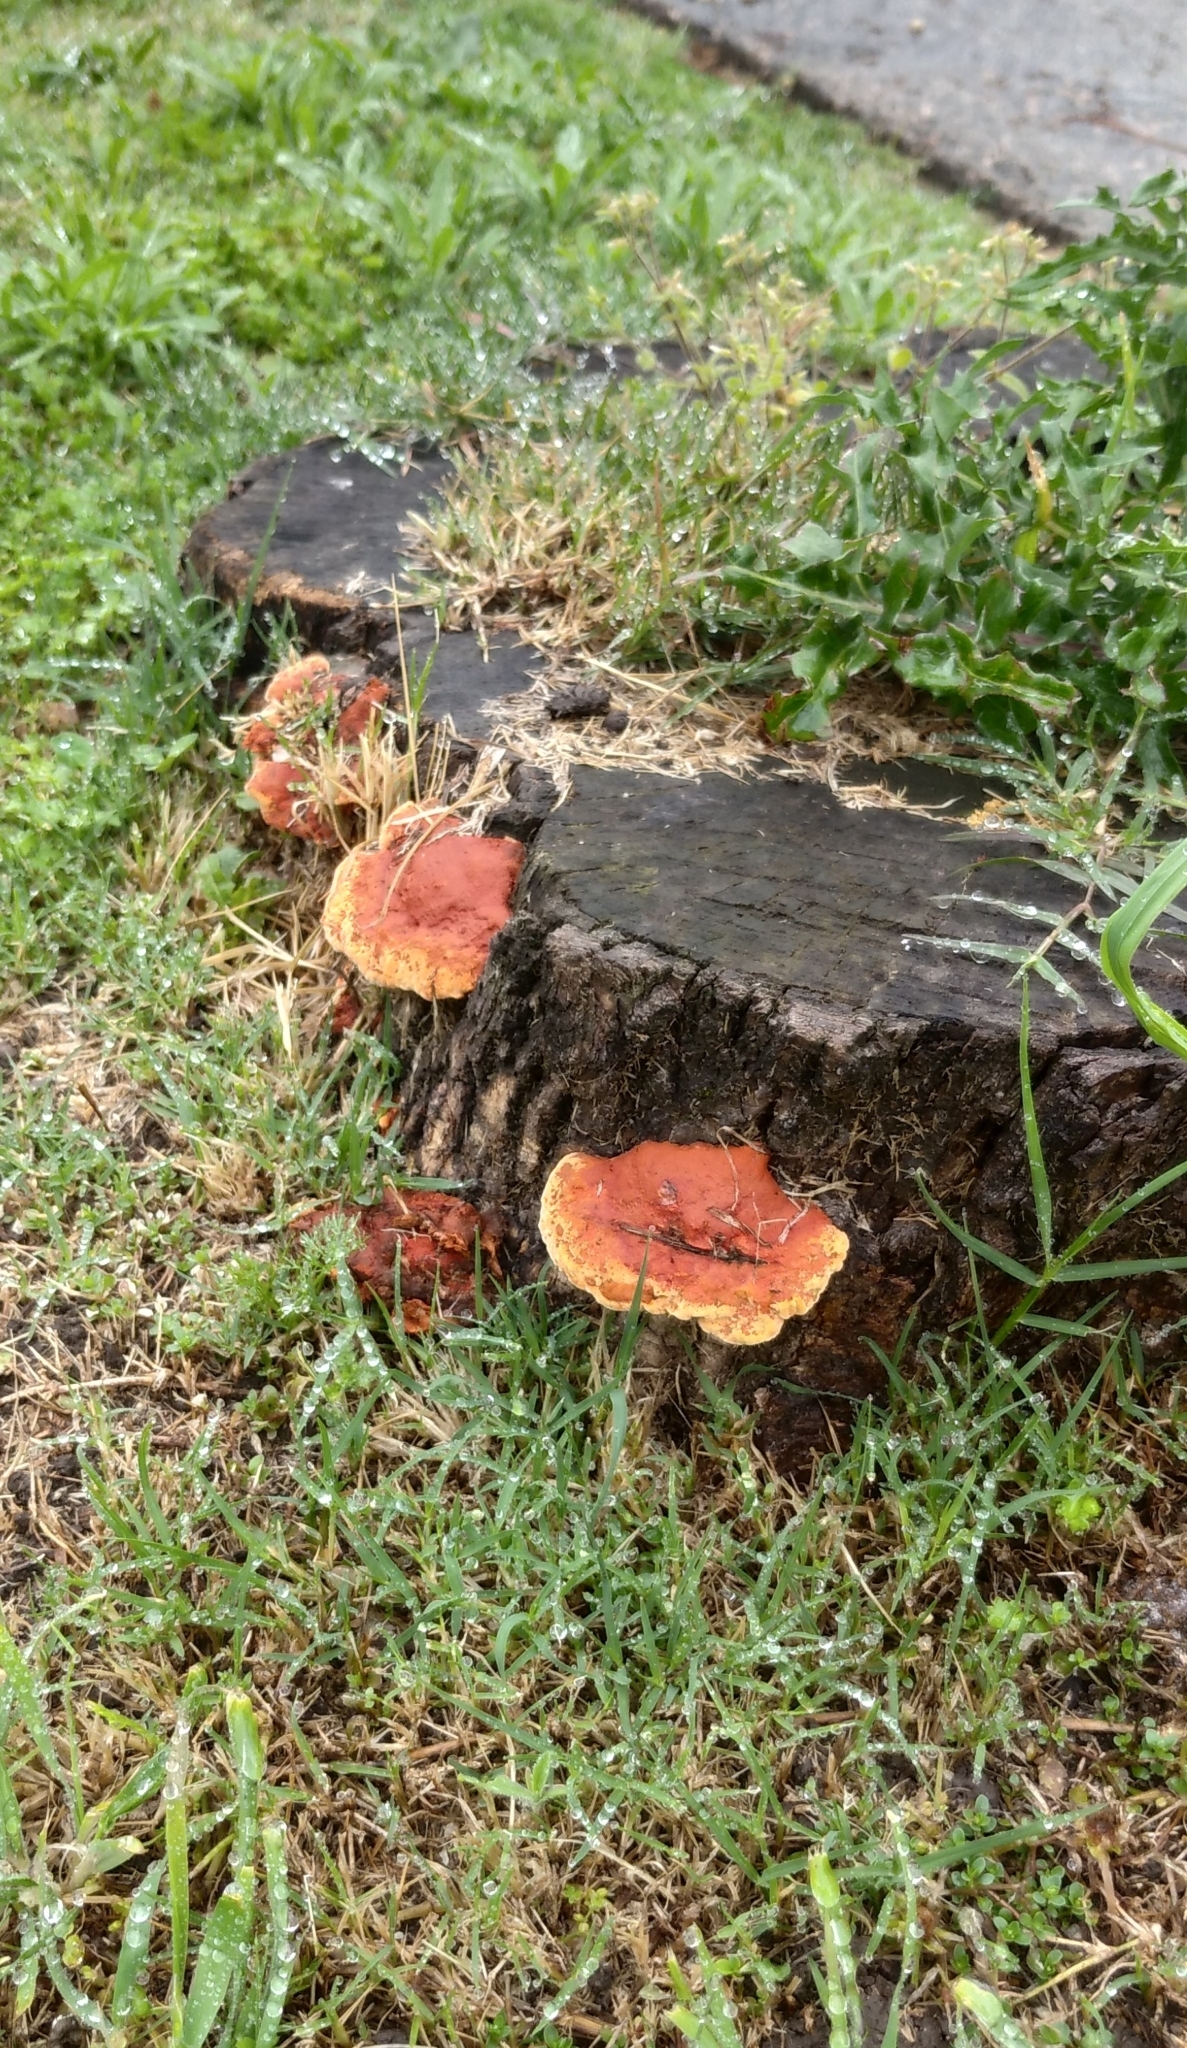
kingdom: Fungi
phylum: Basidiomycota
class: Agaricomycetes
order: Polyporales
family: Polyporaceae
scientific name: Polyporaceae
